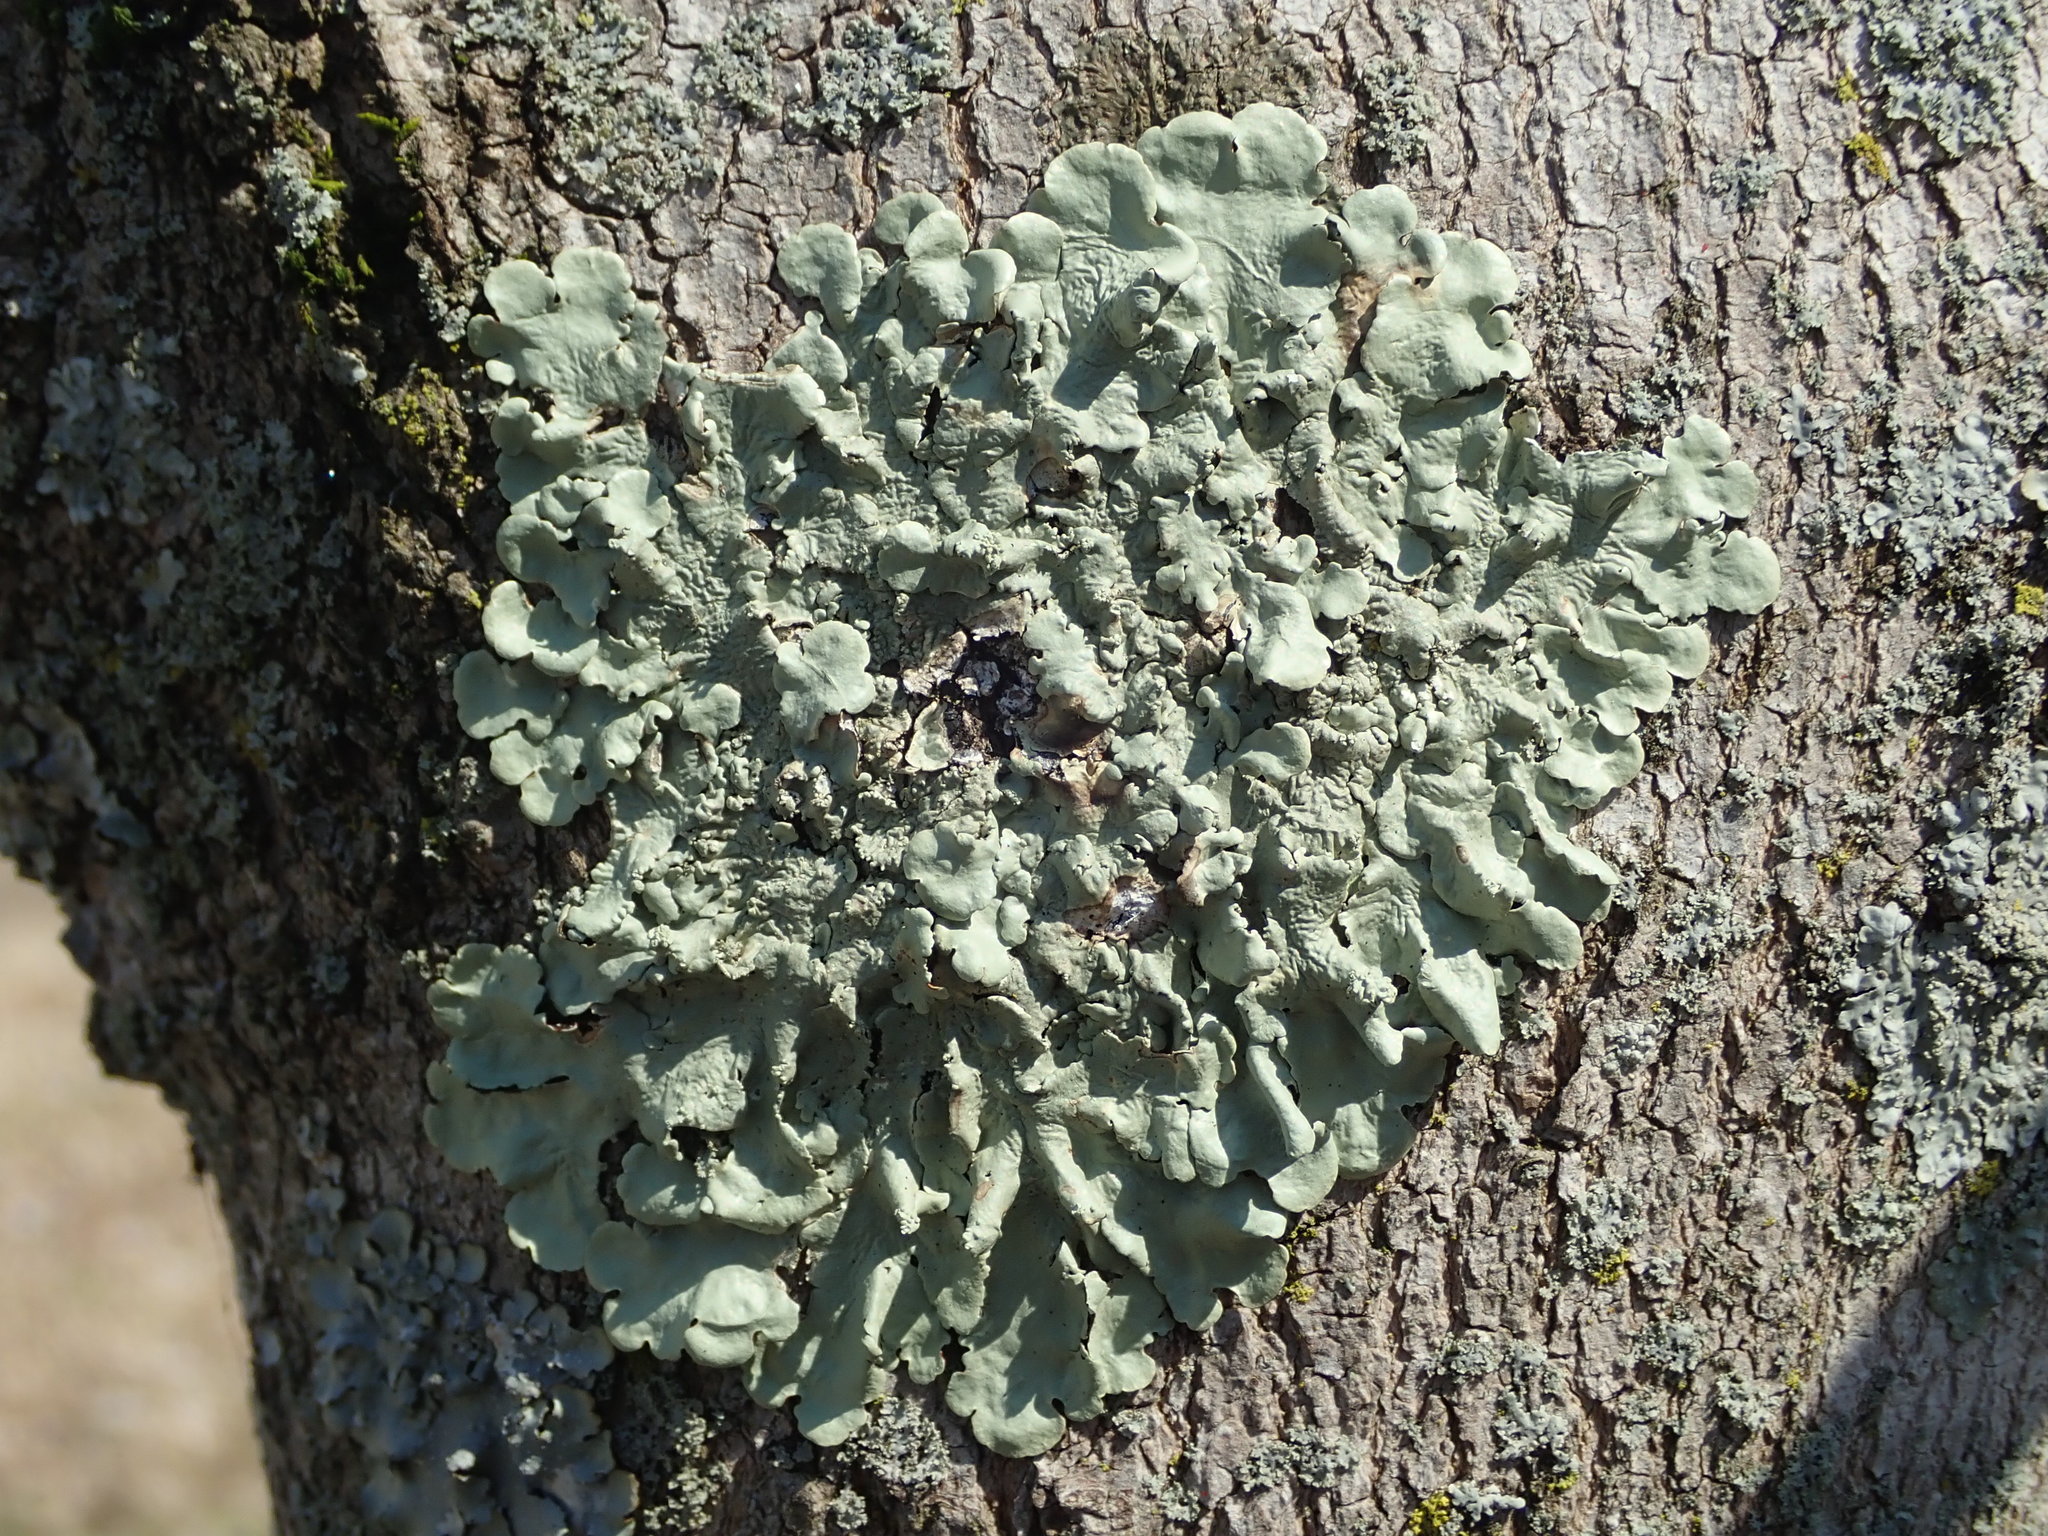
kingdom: Fungi
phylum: Ascomycota
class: Lecanoromycetes
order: Lecanorales
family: Parmeliaceae
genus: Flavoparmelia
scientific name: Flavoparmelia caperata
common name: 40-mile per hour lichen
